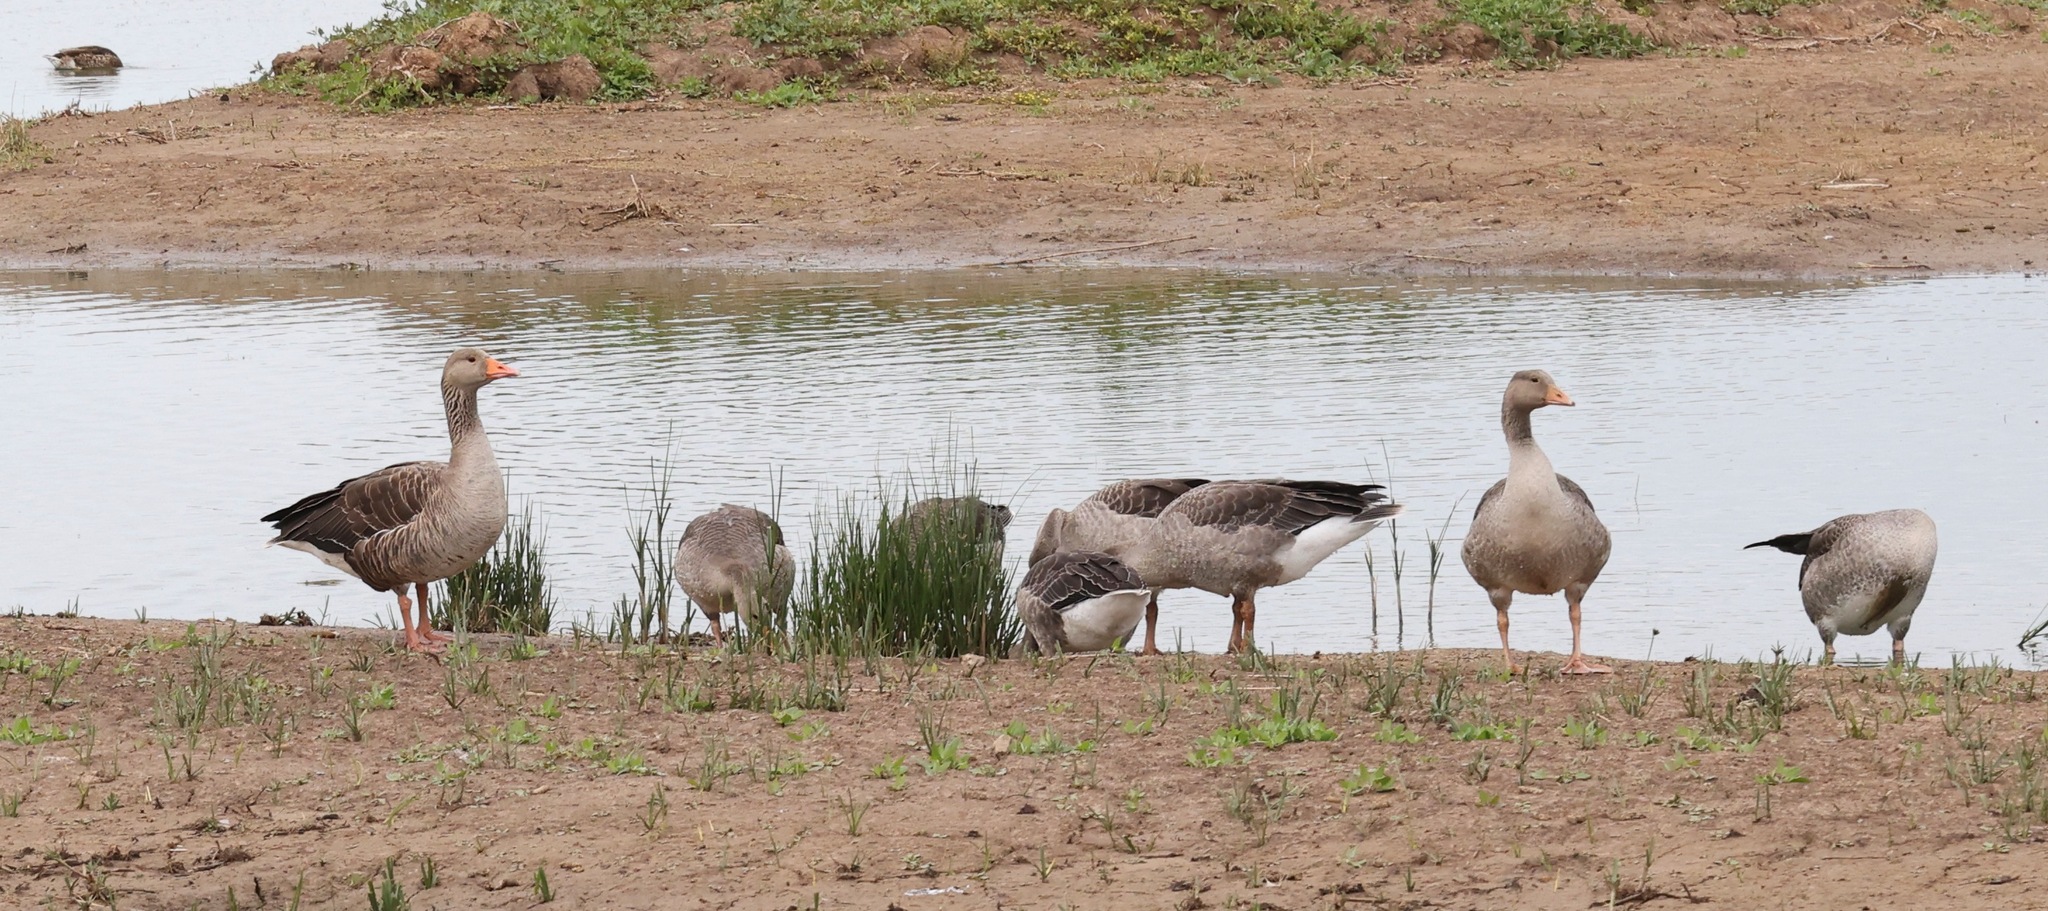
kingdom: Animalia
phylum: Chordata
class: Aves
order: Anseriformes
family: Anatidae
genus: Anser
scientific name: Anser anser
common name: Greylag goose
